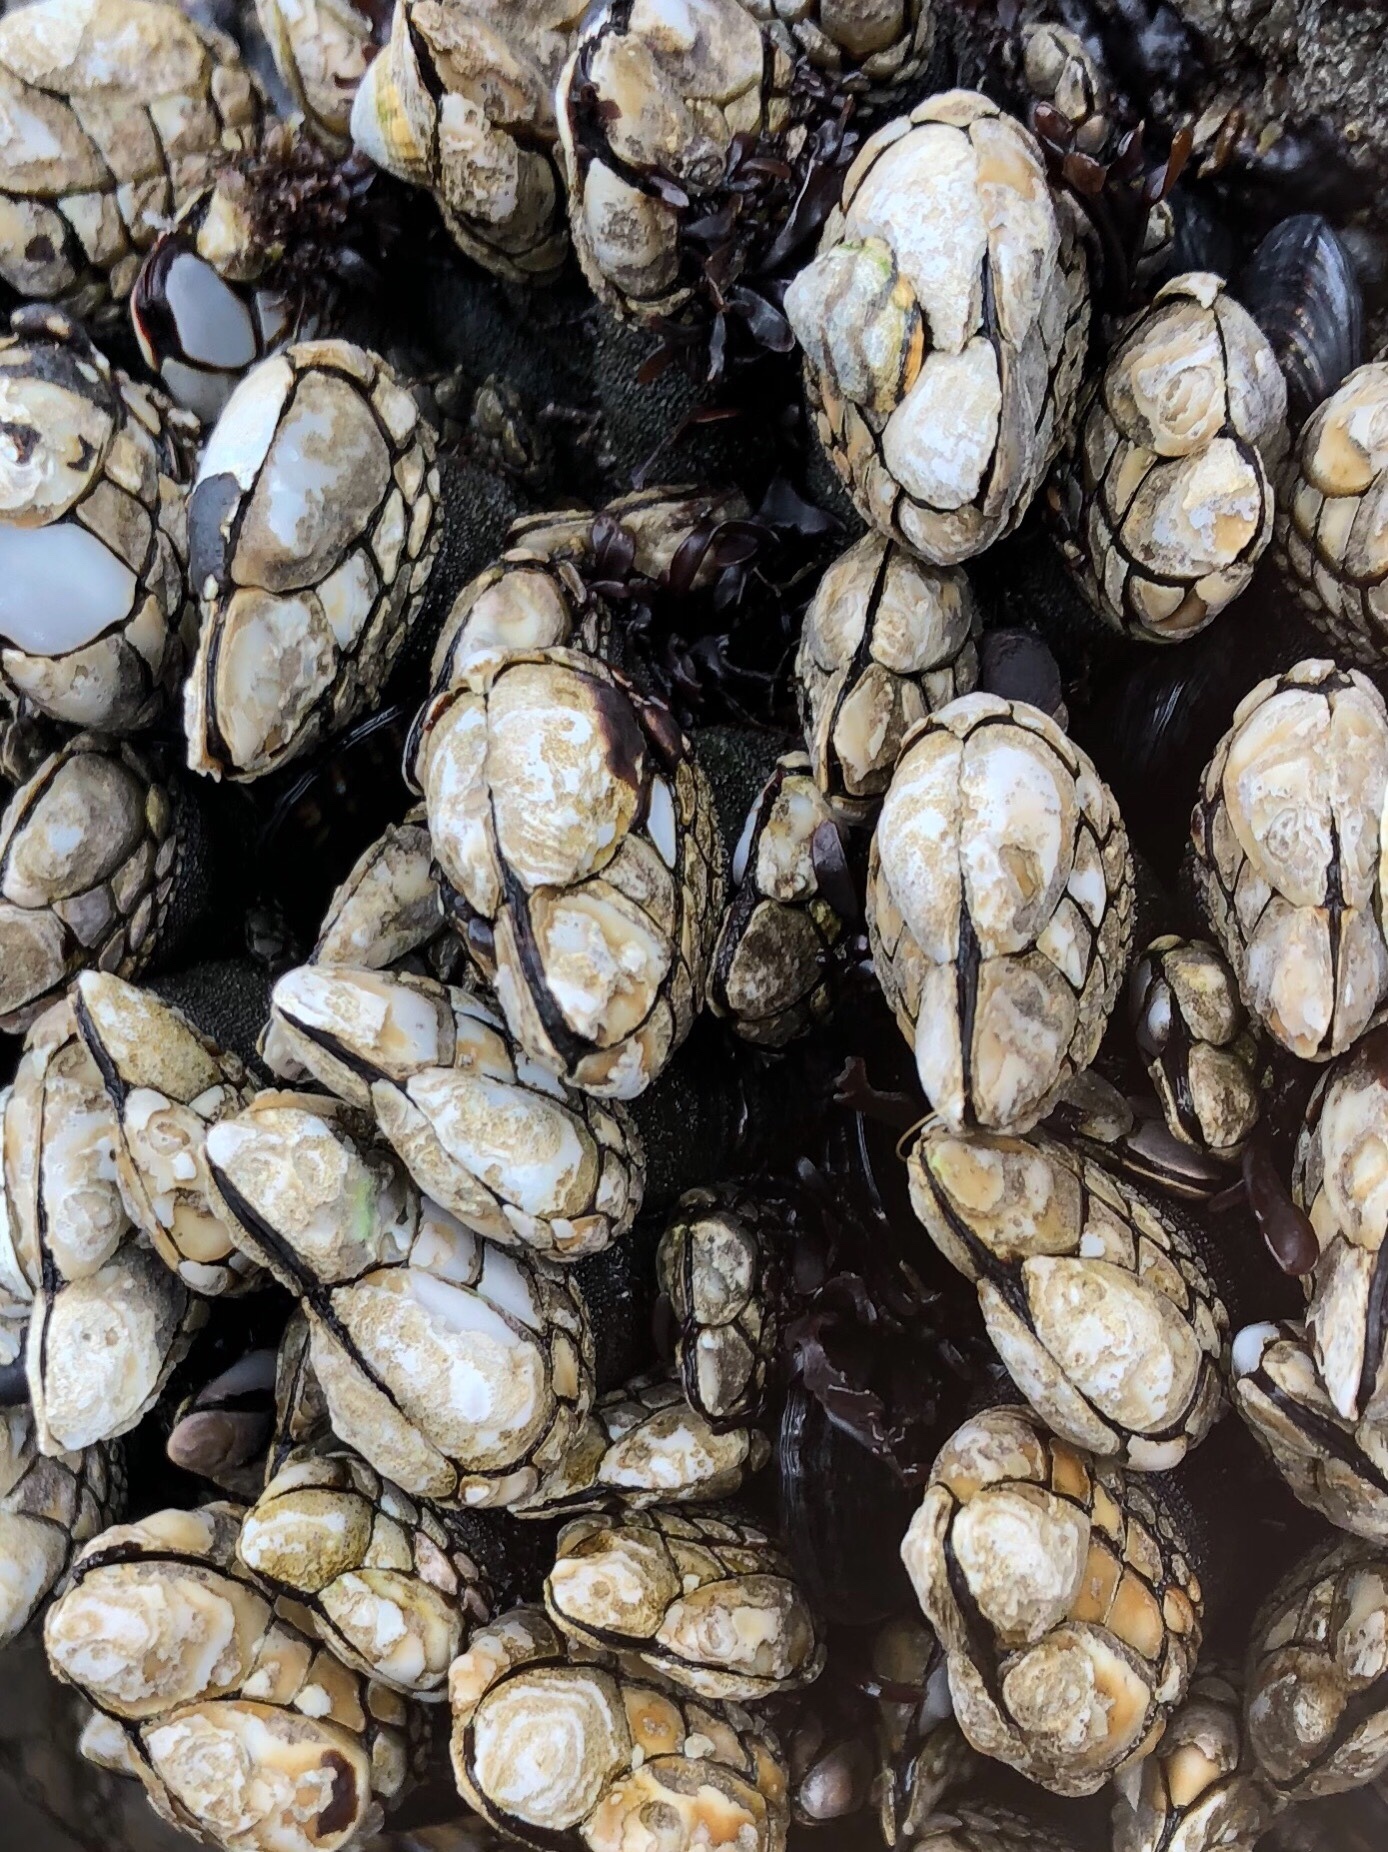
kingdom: Animalia
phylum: Arthropoda
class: Maxillopoda
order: Pedunculata
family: Pollicipedidae
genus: Pollicipes
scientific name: Pollicipes polymerus
